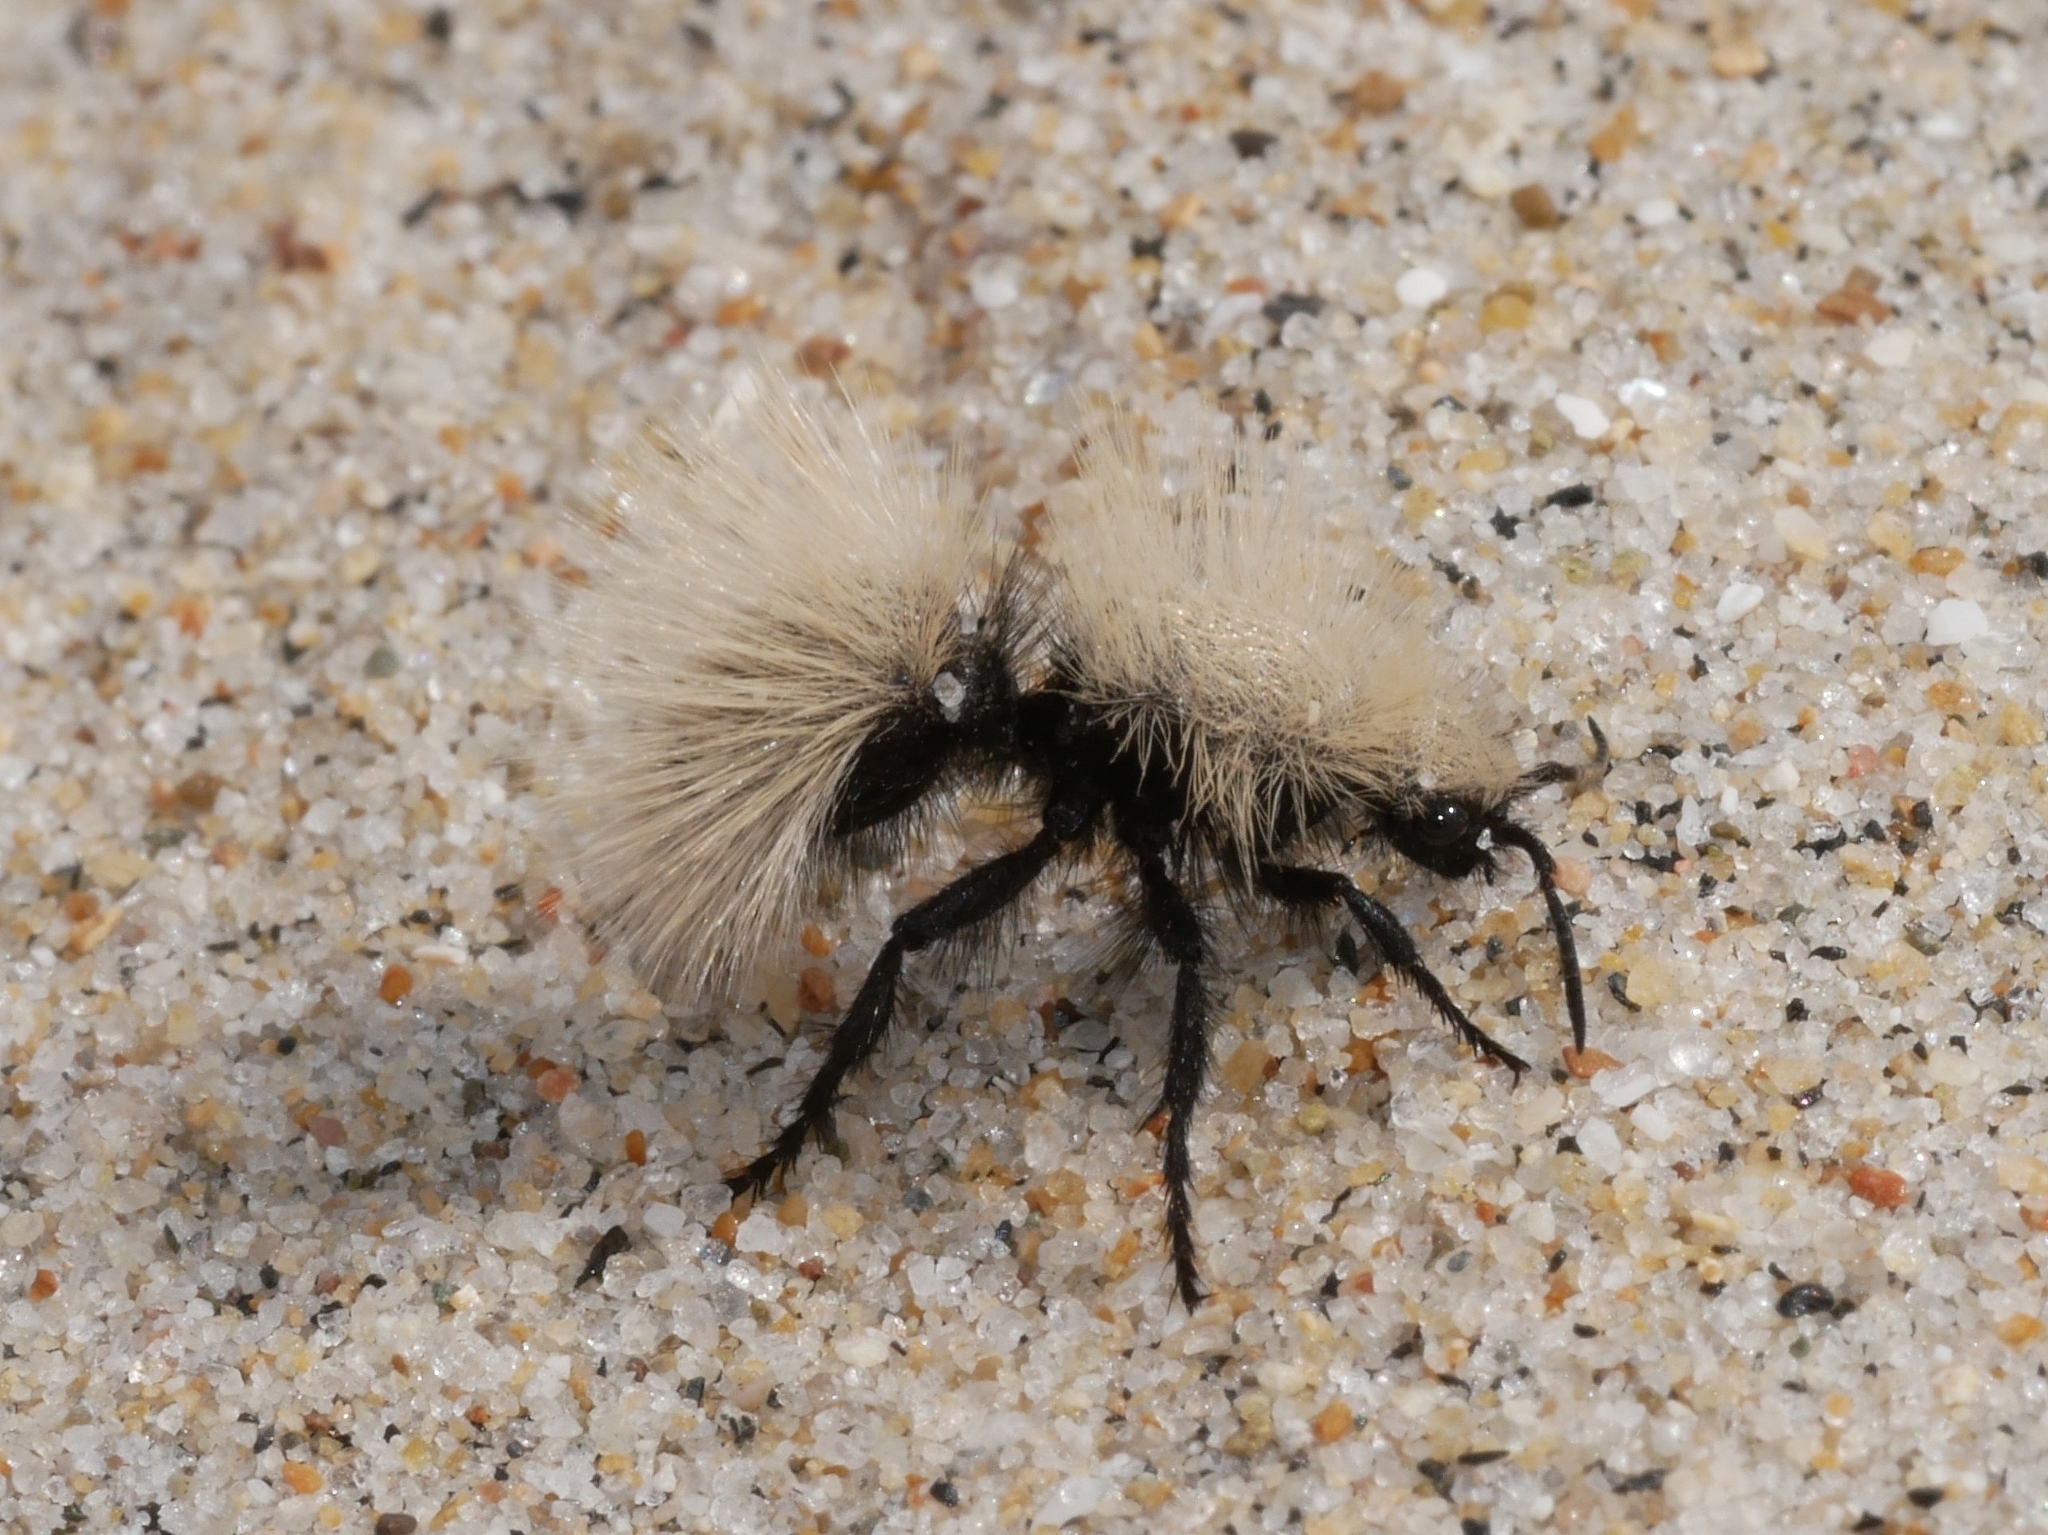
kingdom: Animalia
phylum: Arthropoda
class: Insecta
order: Hymenoptera
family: Mutillidae
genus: Dasymutilla
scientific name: Dasymutilla
